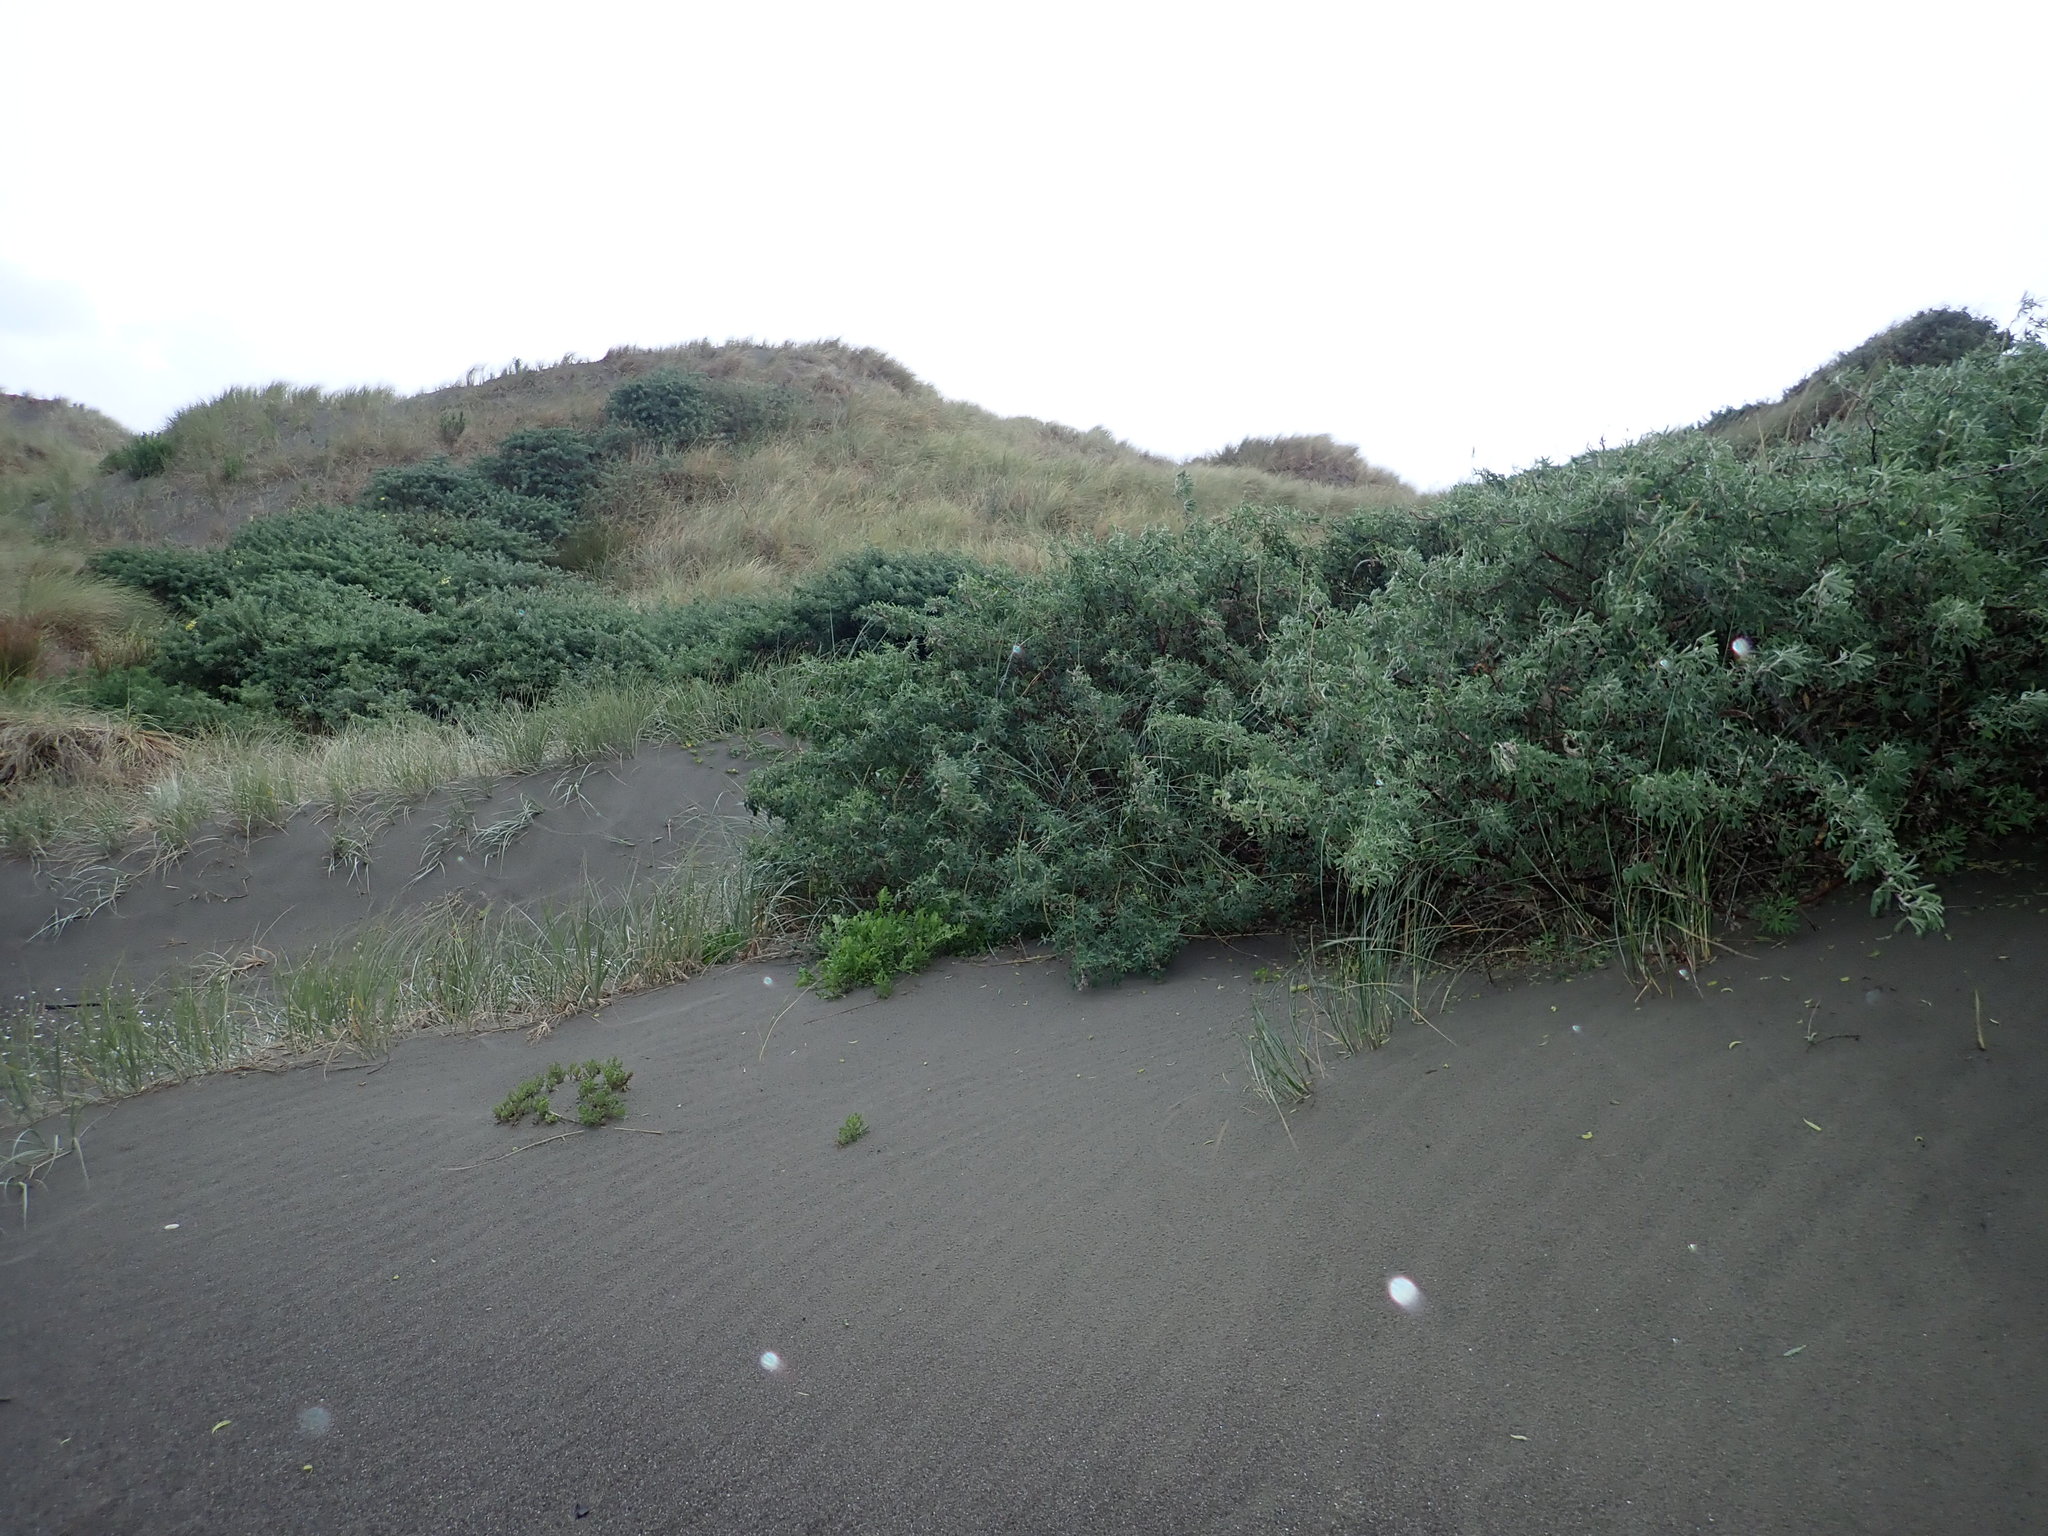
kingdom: Plantae
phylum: Tracheophyta
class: Magnoliopsida
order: Fabales
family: Fabaceae
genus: Lupinus
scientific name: Lupinus arboreus
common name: Yellow bush lupine
